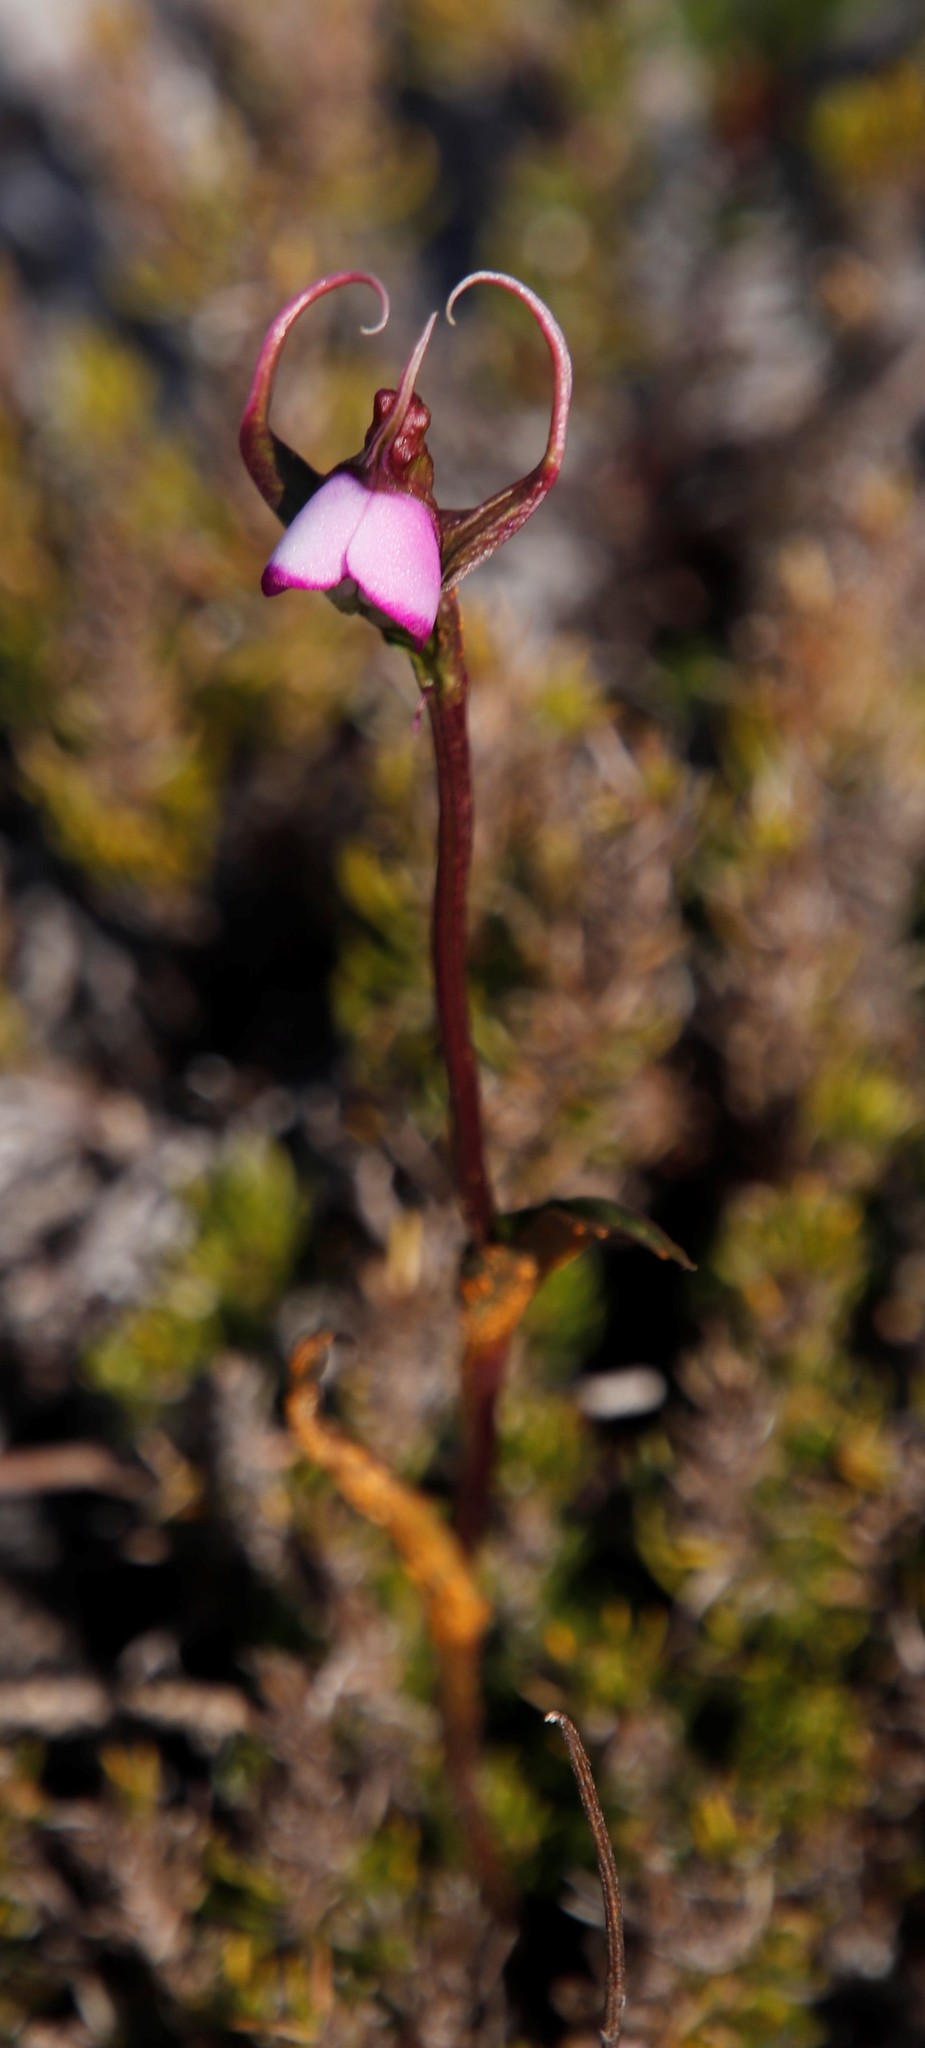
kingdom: Plantae
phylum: Tracheophyta
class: Liliopsida
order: Asparagales
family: Orchidaceae
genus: Disperis
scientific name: Disperis capensis
